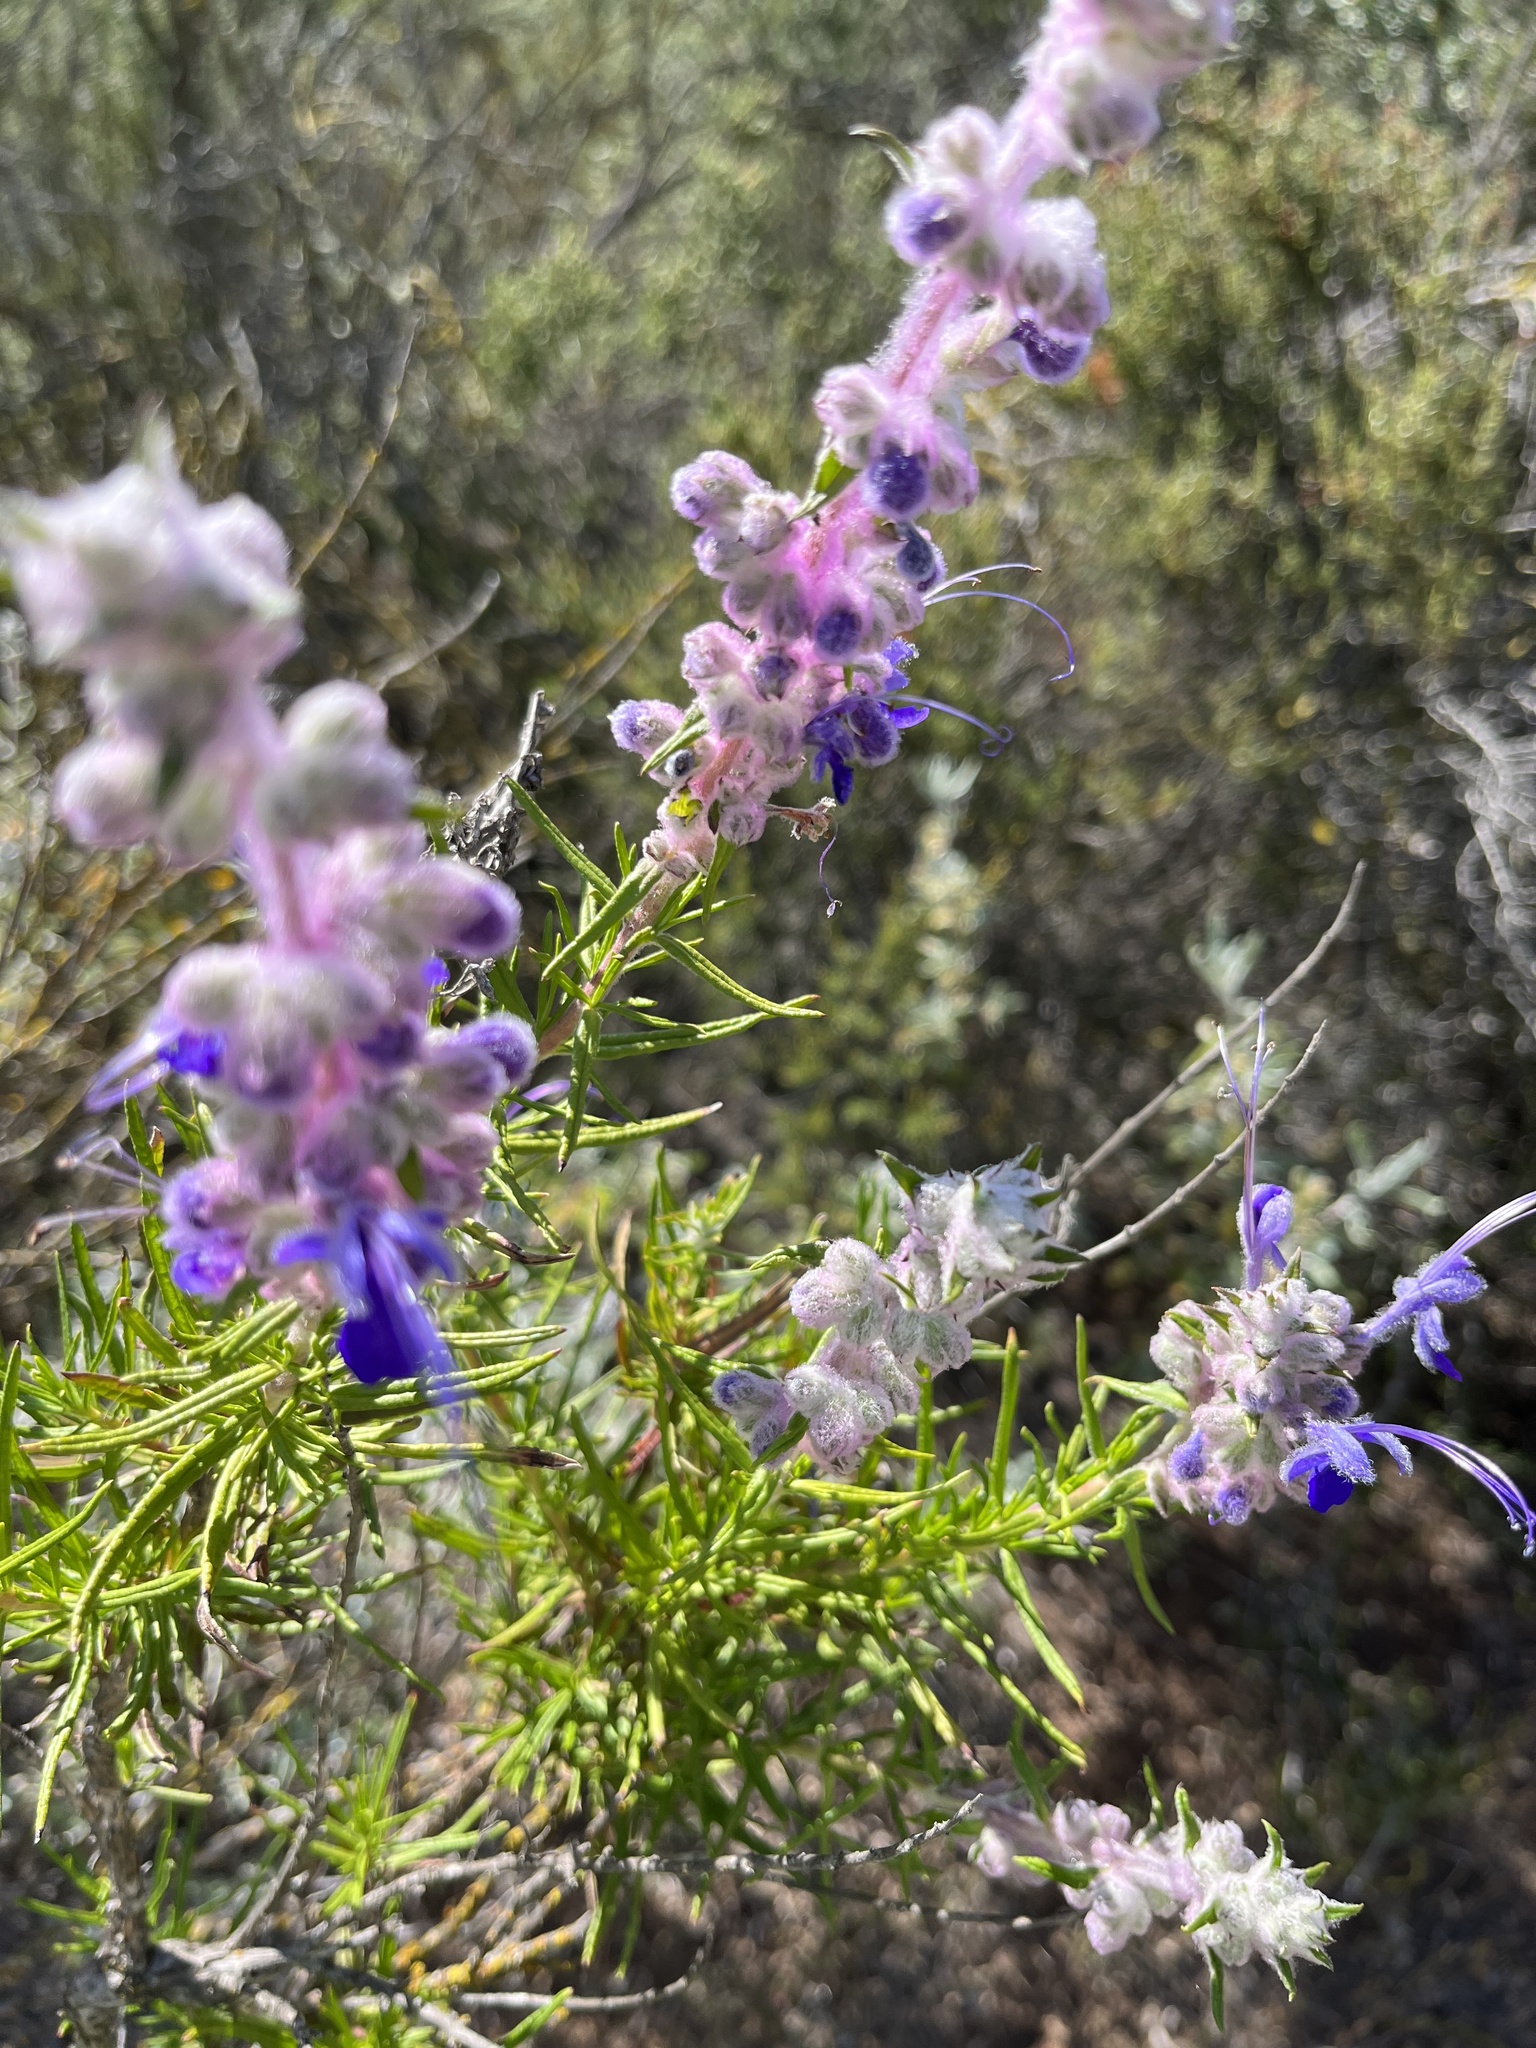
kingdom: Plantae
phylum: Tracheophyta
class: Magnoliopsida
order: Lamiales
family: Lamiaceae
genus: Trichostema
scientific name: Trichostema lanatum
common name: Woolly bluecurls
